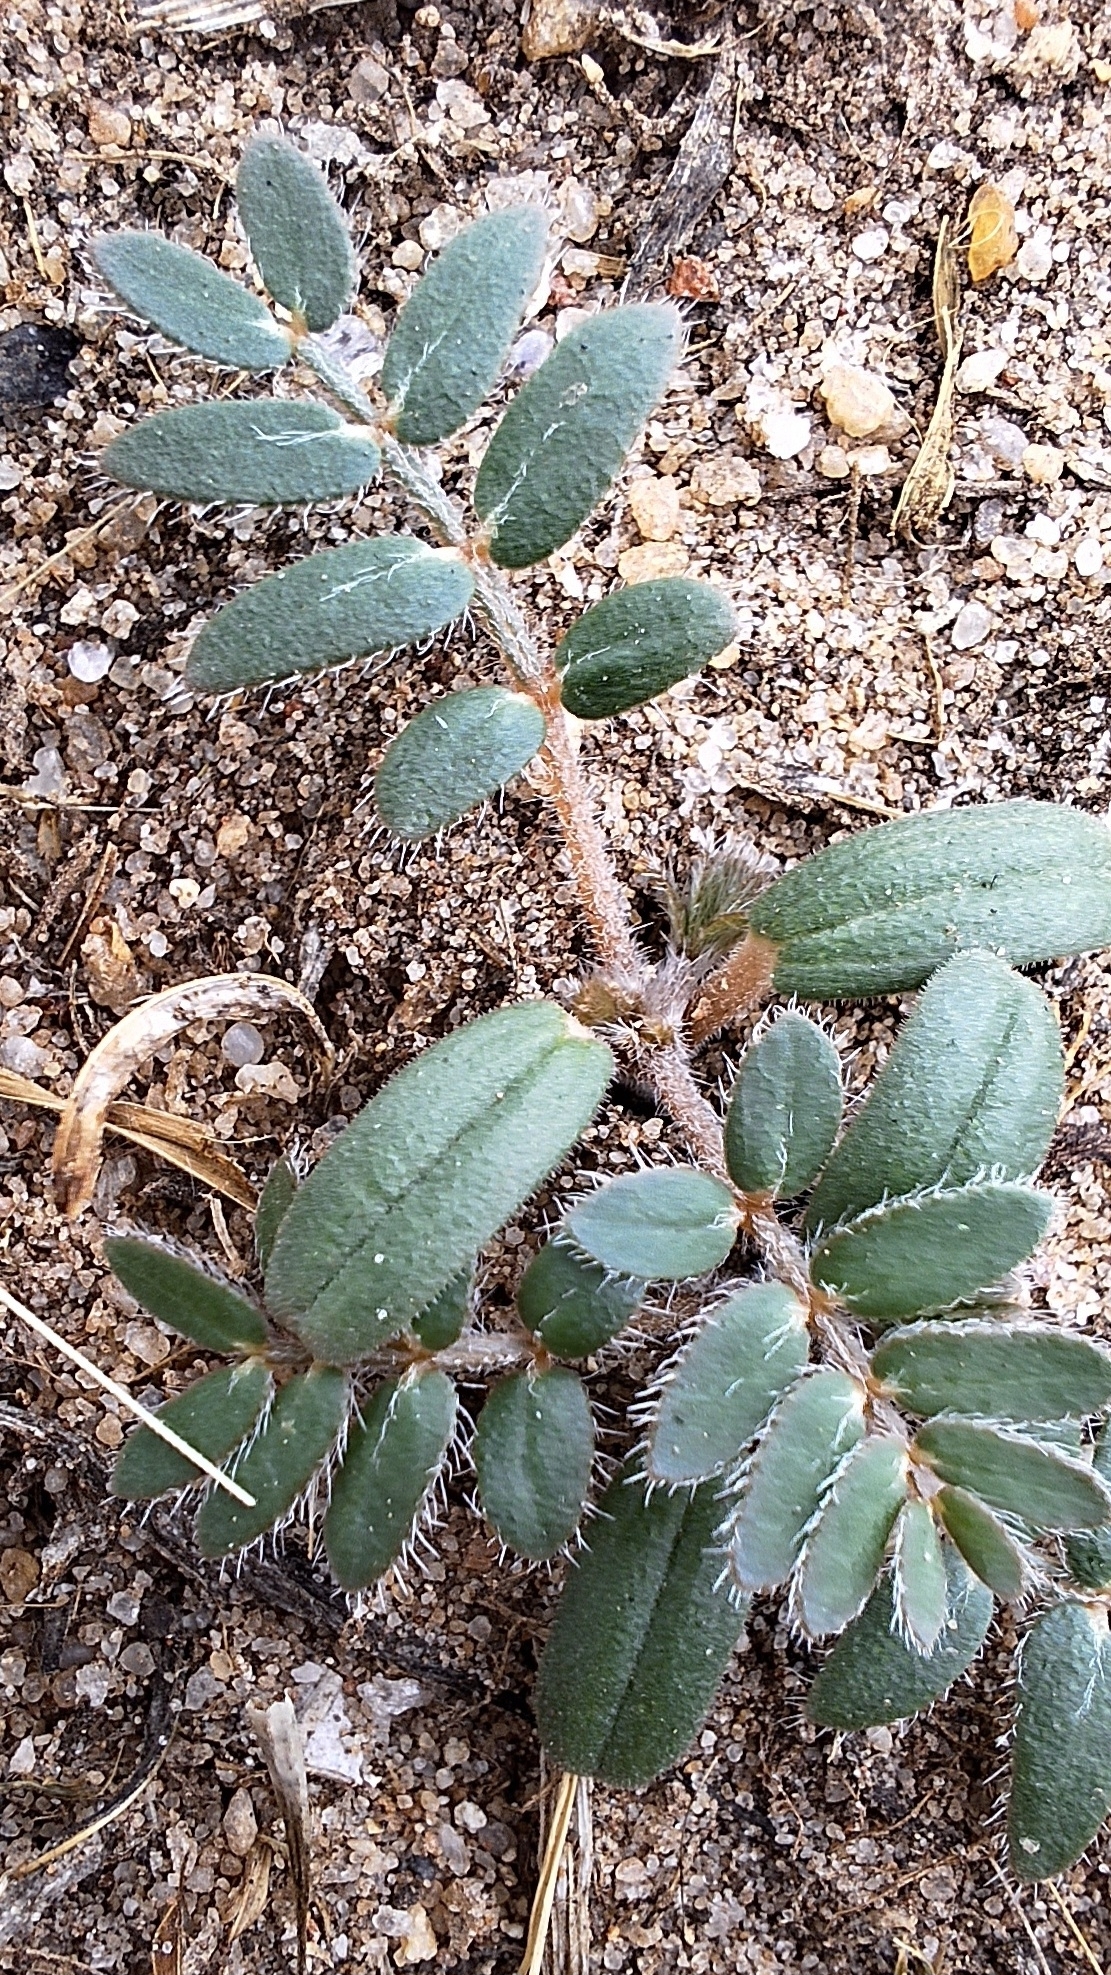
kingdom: Plantae
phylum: Tracheophyta
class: Magnoliopsida
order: Zygophyllales
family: Zygophyllaceae
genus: Tribulus
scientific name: Tribulus terrestris
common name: Puncturevine
